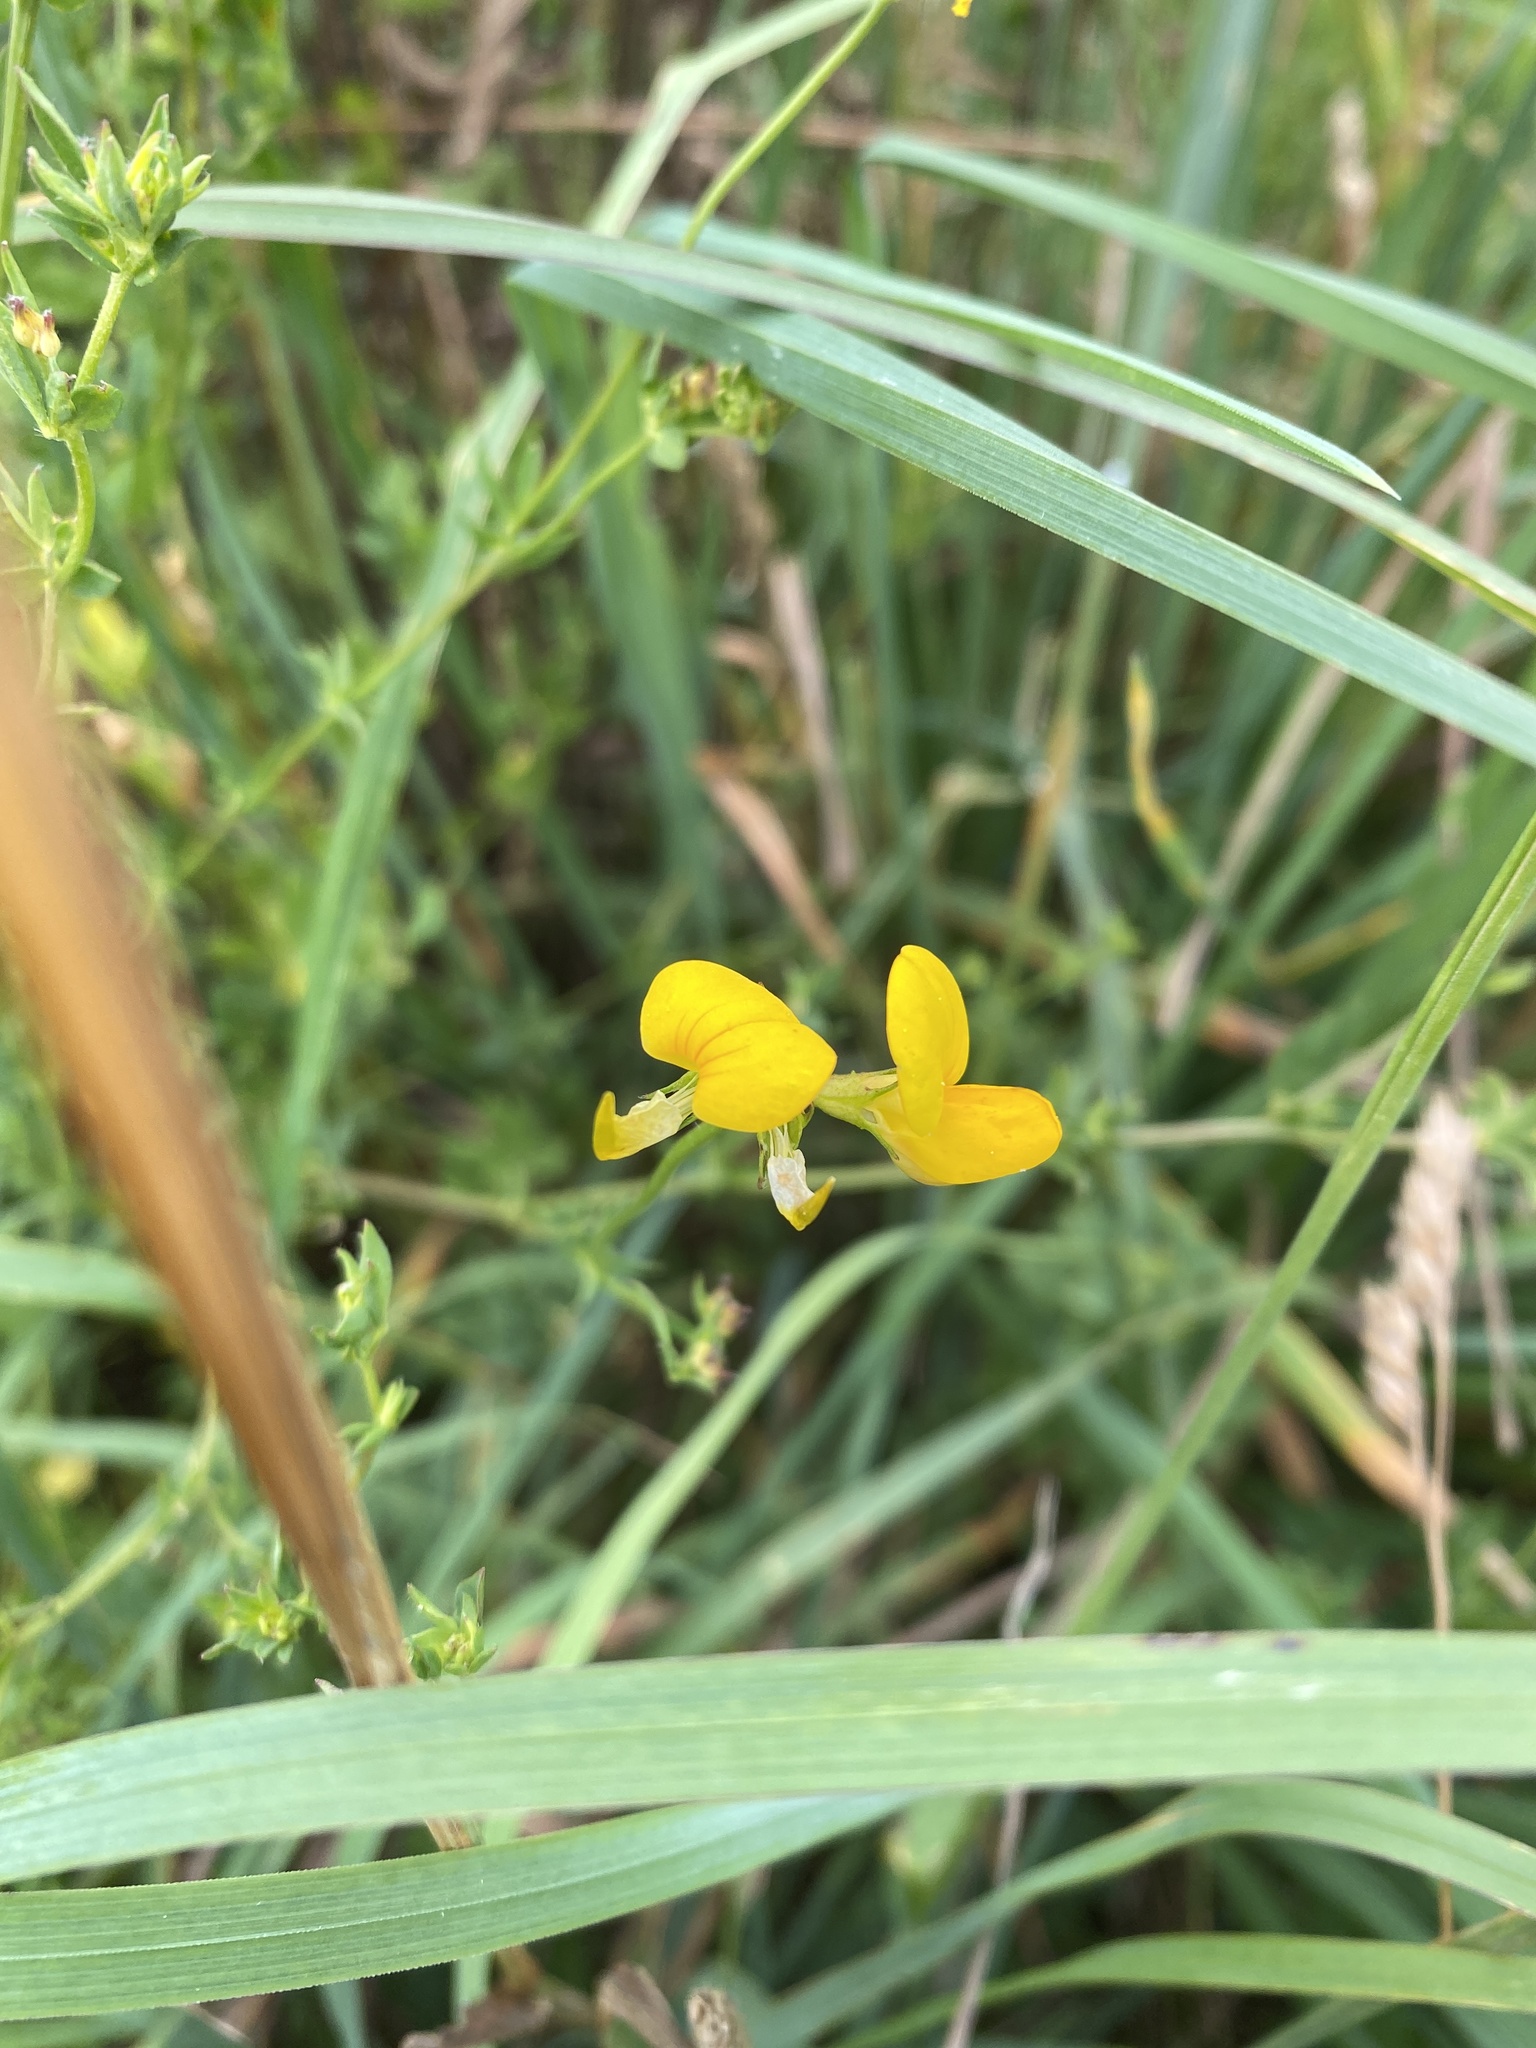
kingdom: Plantae
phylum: Tracheophyta
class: Magnoliopsida
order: Fabales
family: Fabaceae
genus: Lathyrus
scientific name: Lathyrus pratensis
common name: Meadow vetchling
